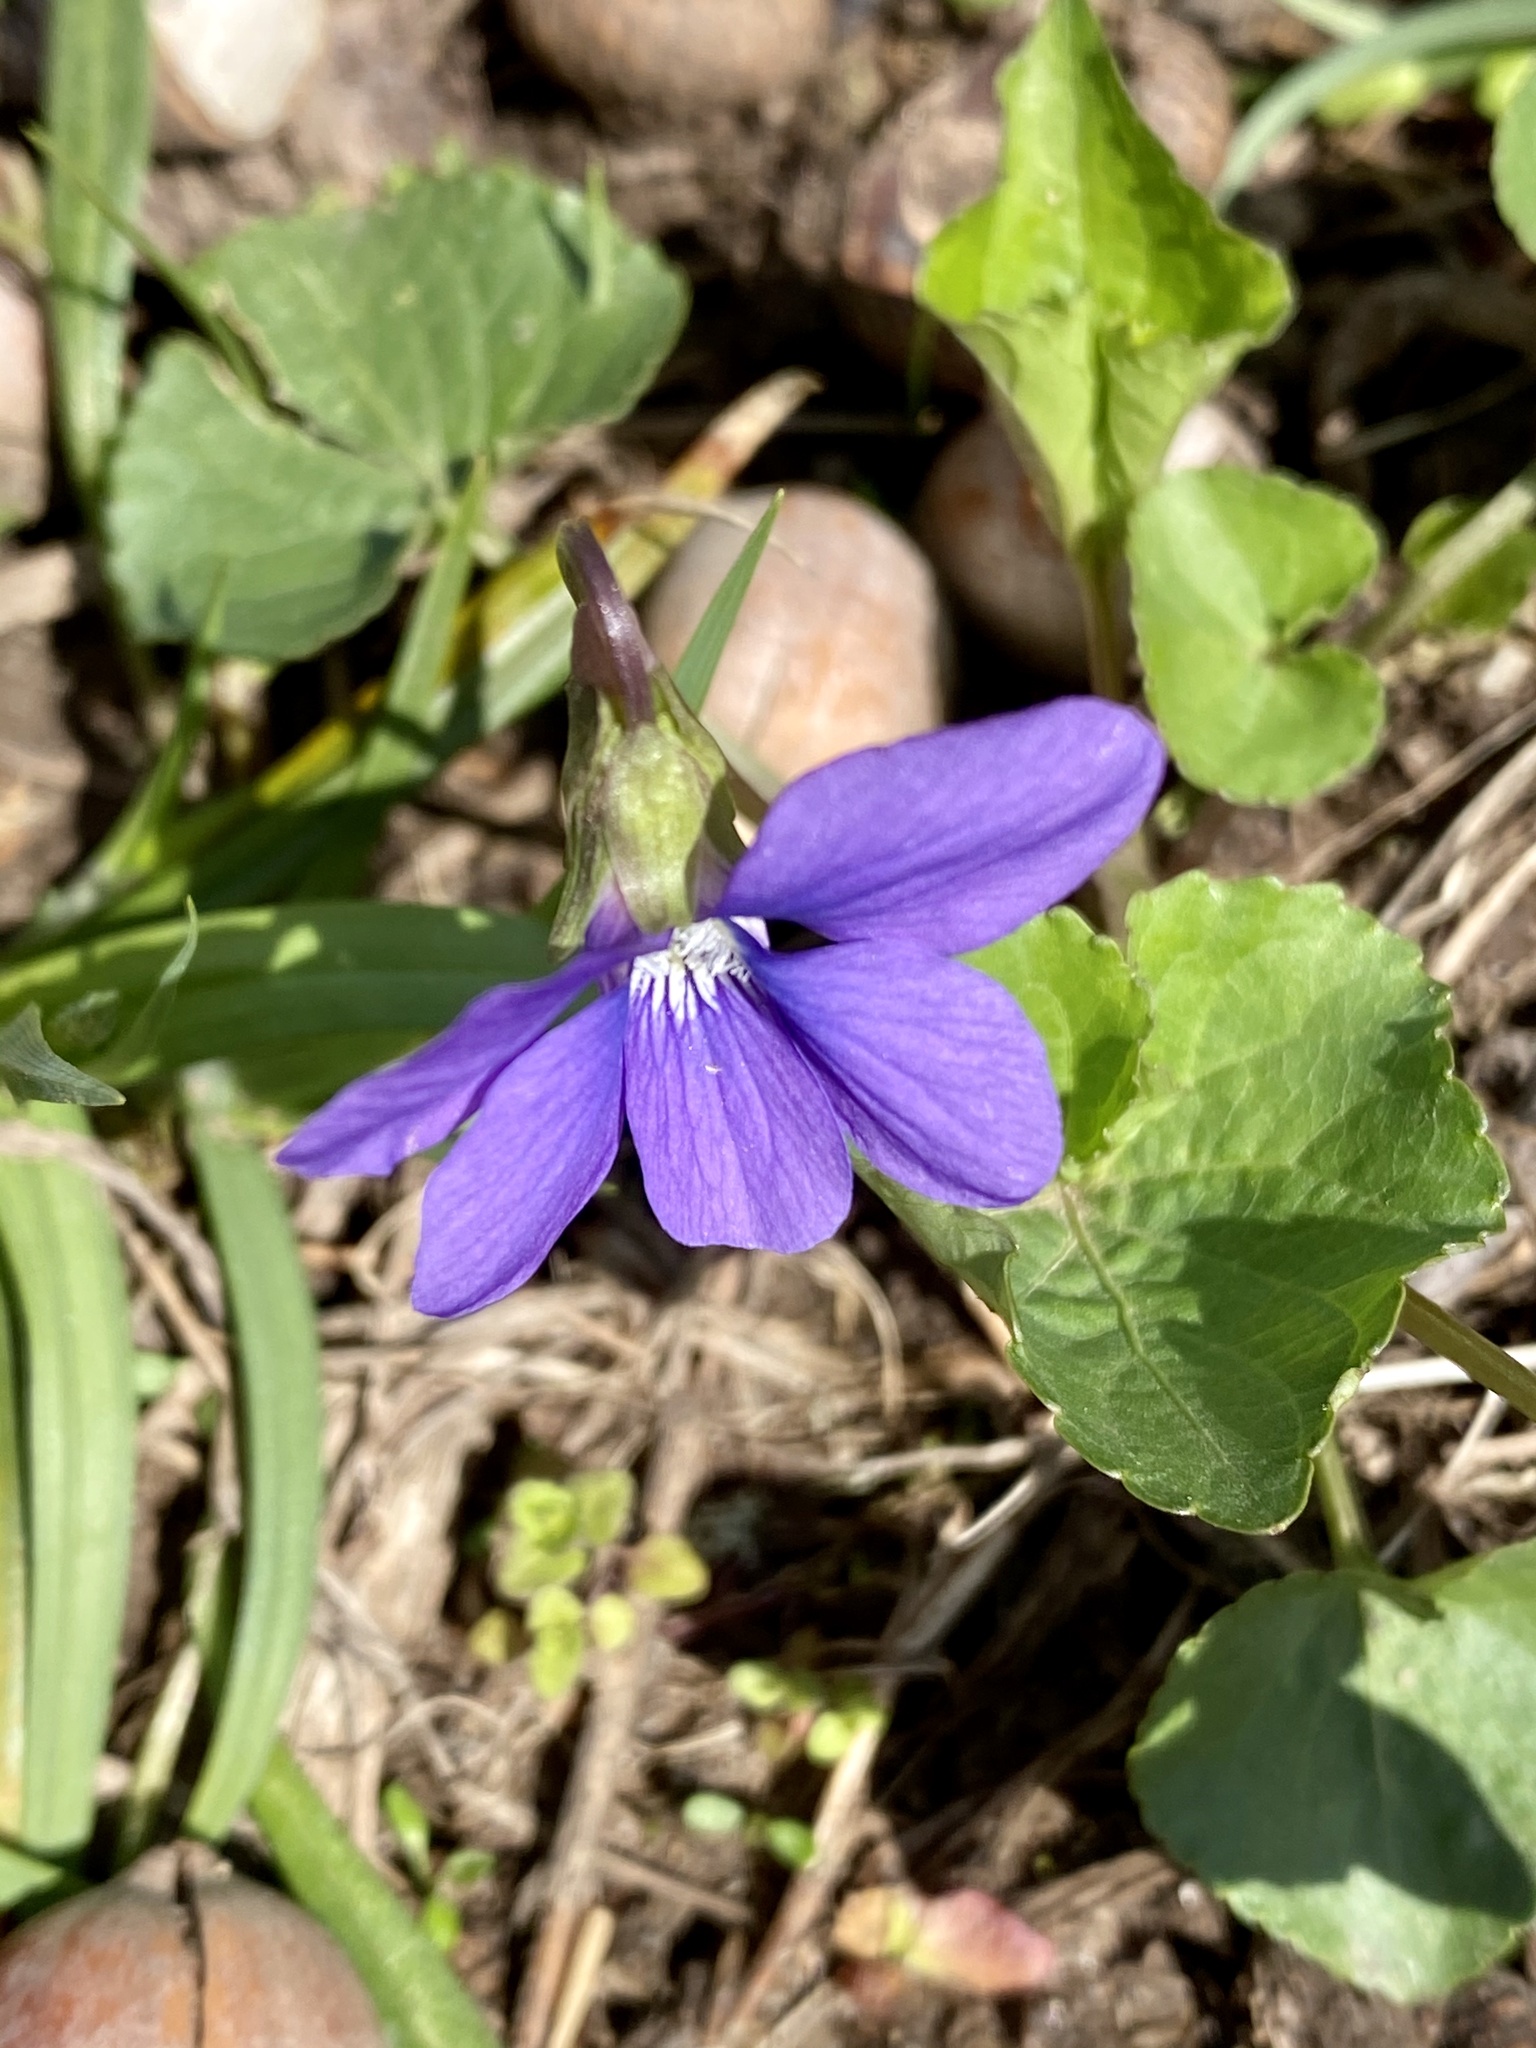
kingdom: Plantae
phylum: Tracheophyta
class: Magnoliopsida
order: Malpighiales
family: Violaceae
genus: Viola
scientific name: Viola sororia
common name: Dooryard violet
